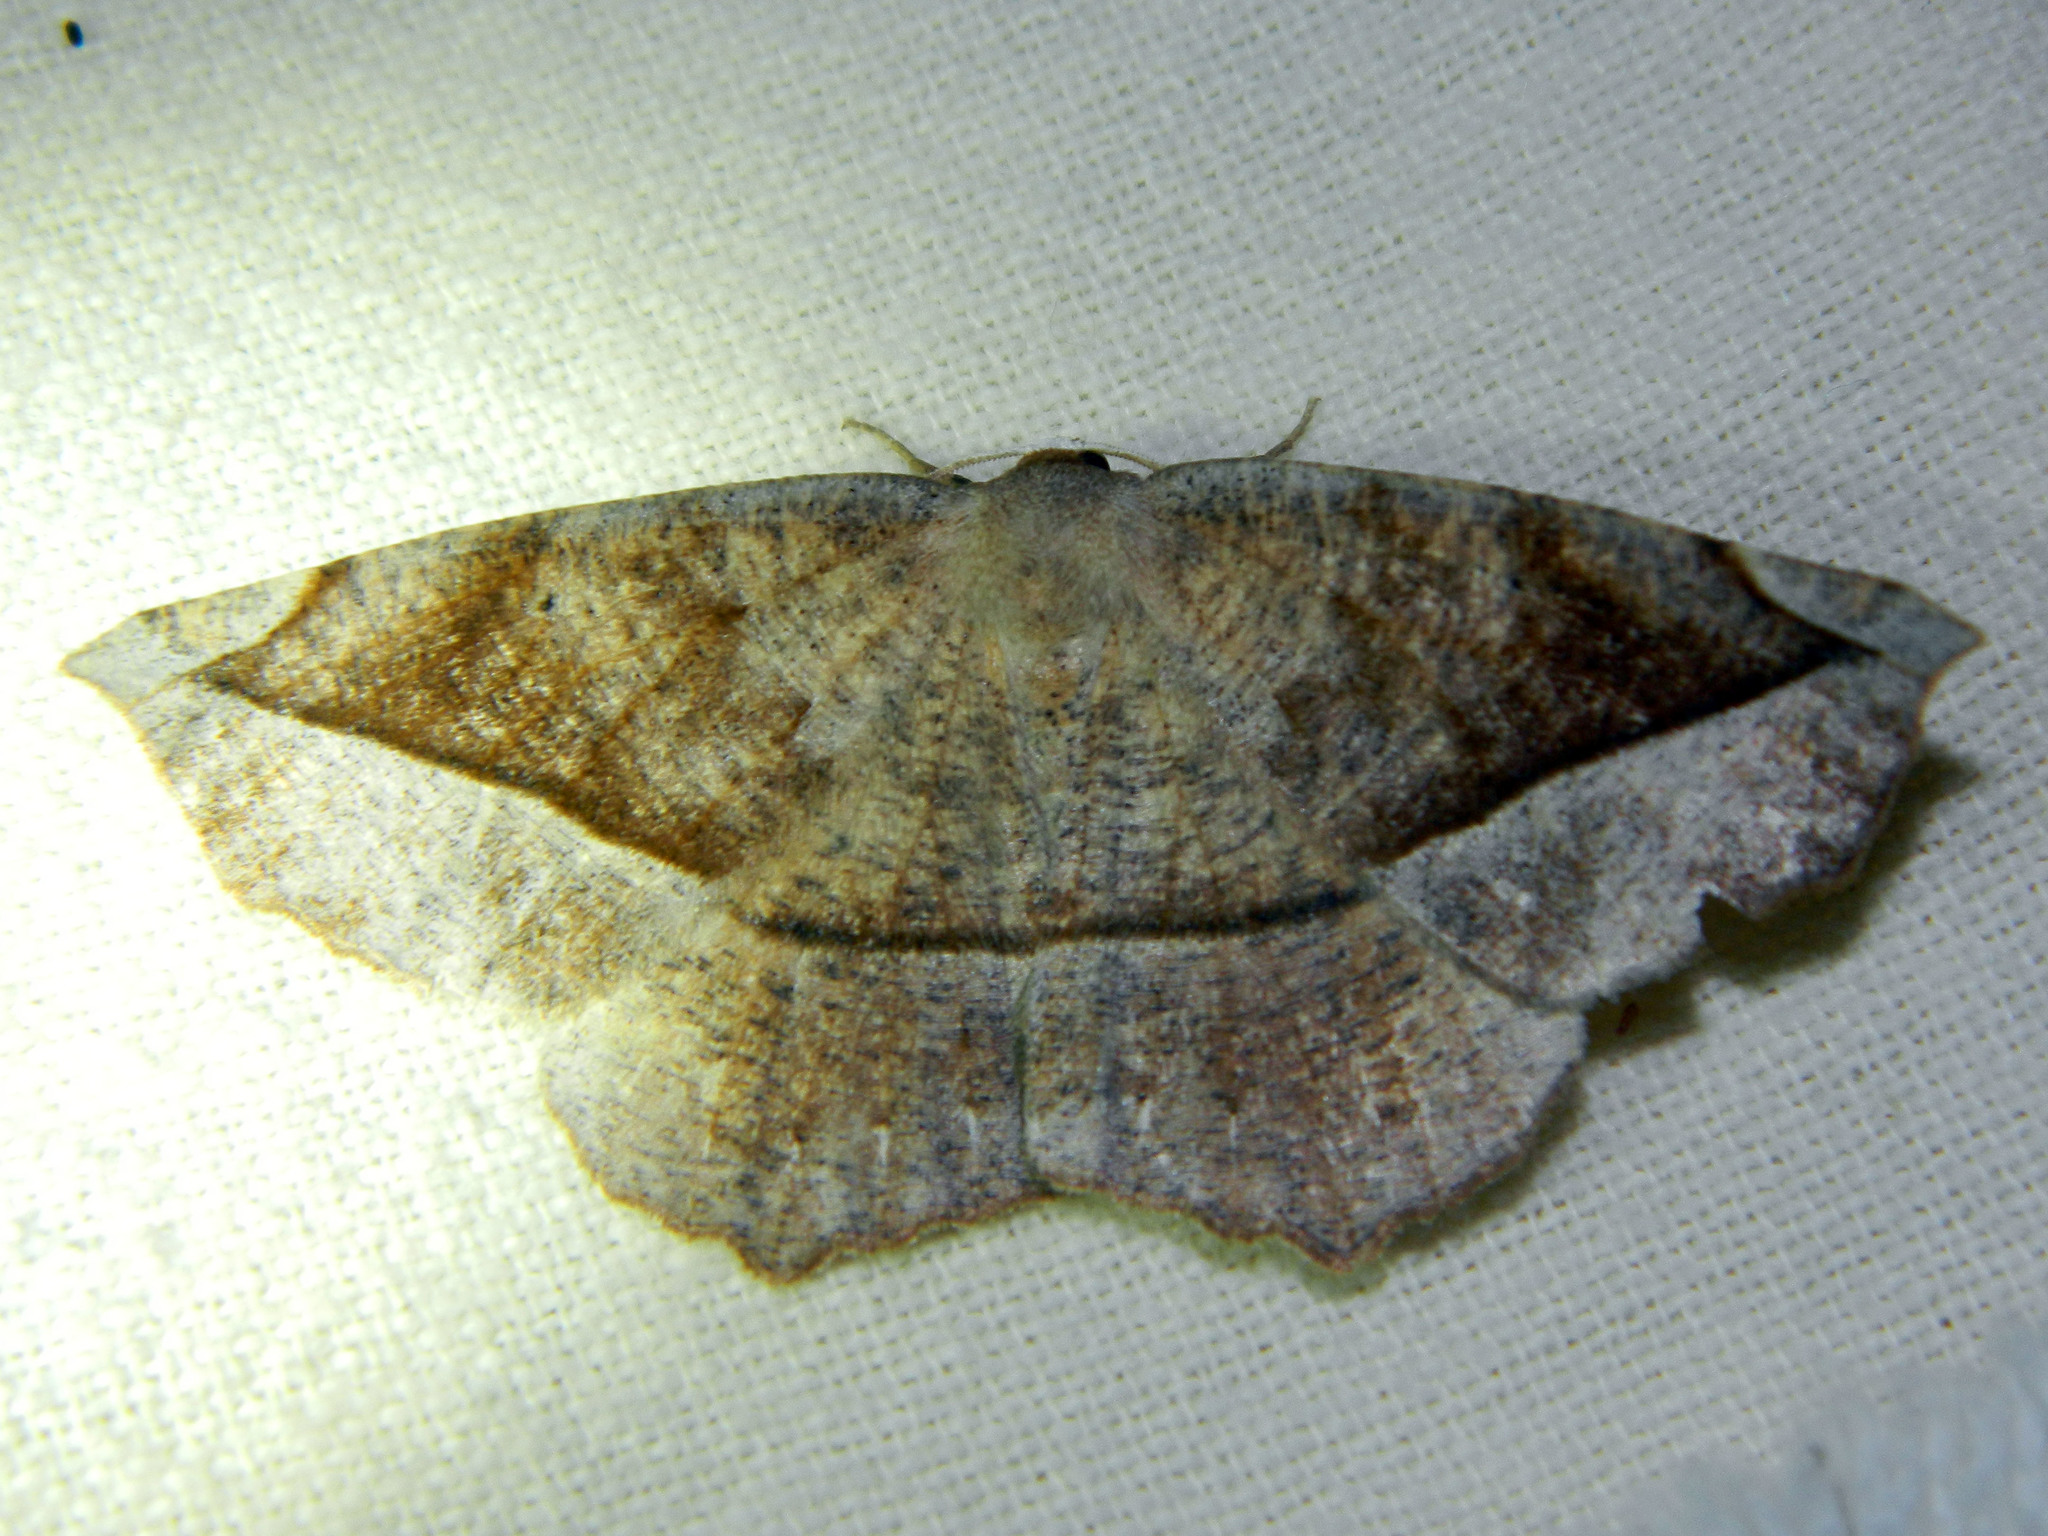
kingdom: Animalia
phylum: Arthropoda
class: Insecta
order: Lepidoptera
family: Geometridae
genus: Eutrapela
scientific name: Eutrapela clemataria
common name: Curved-toothed geometer
